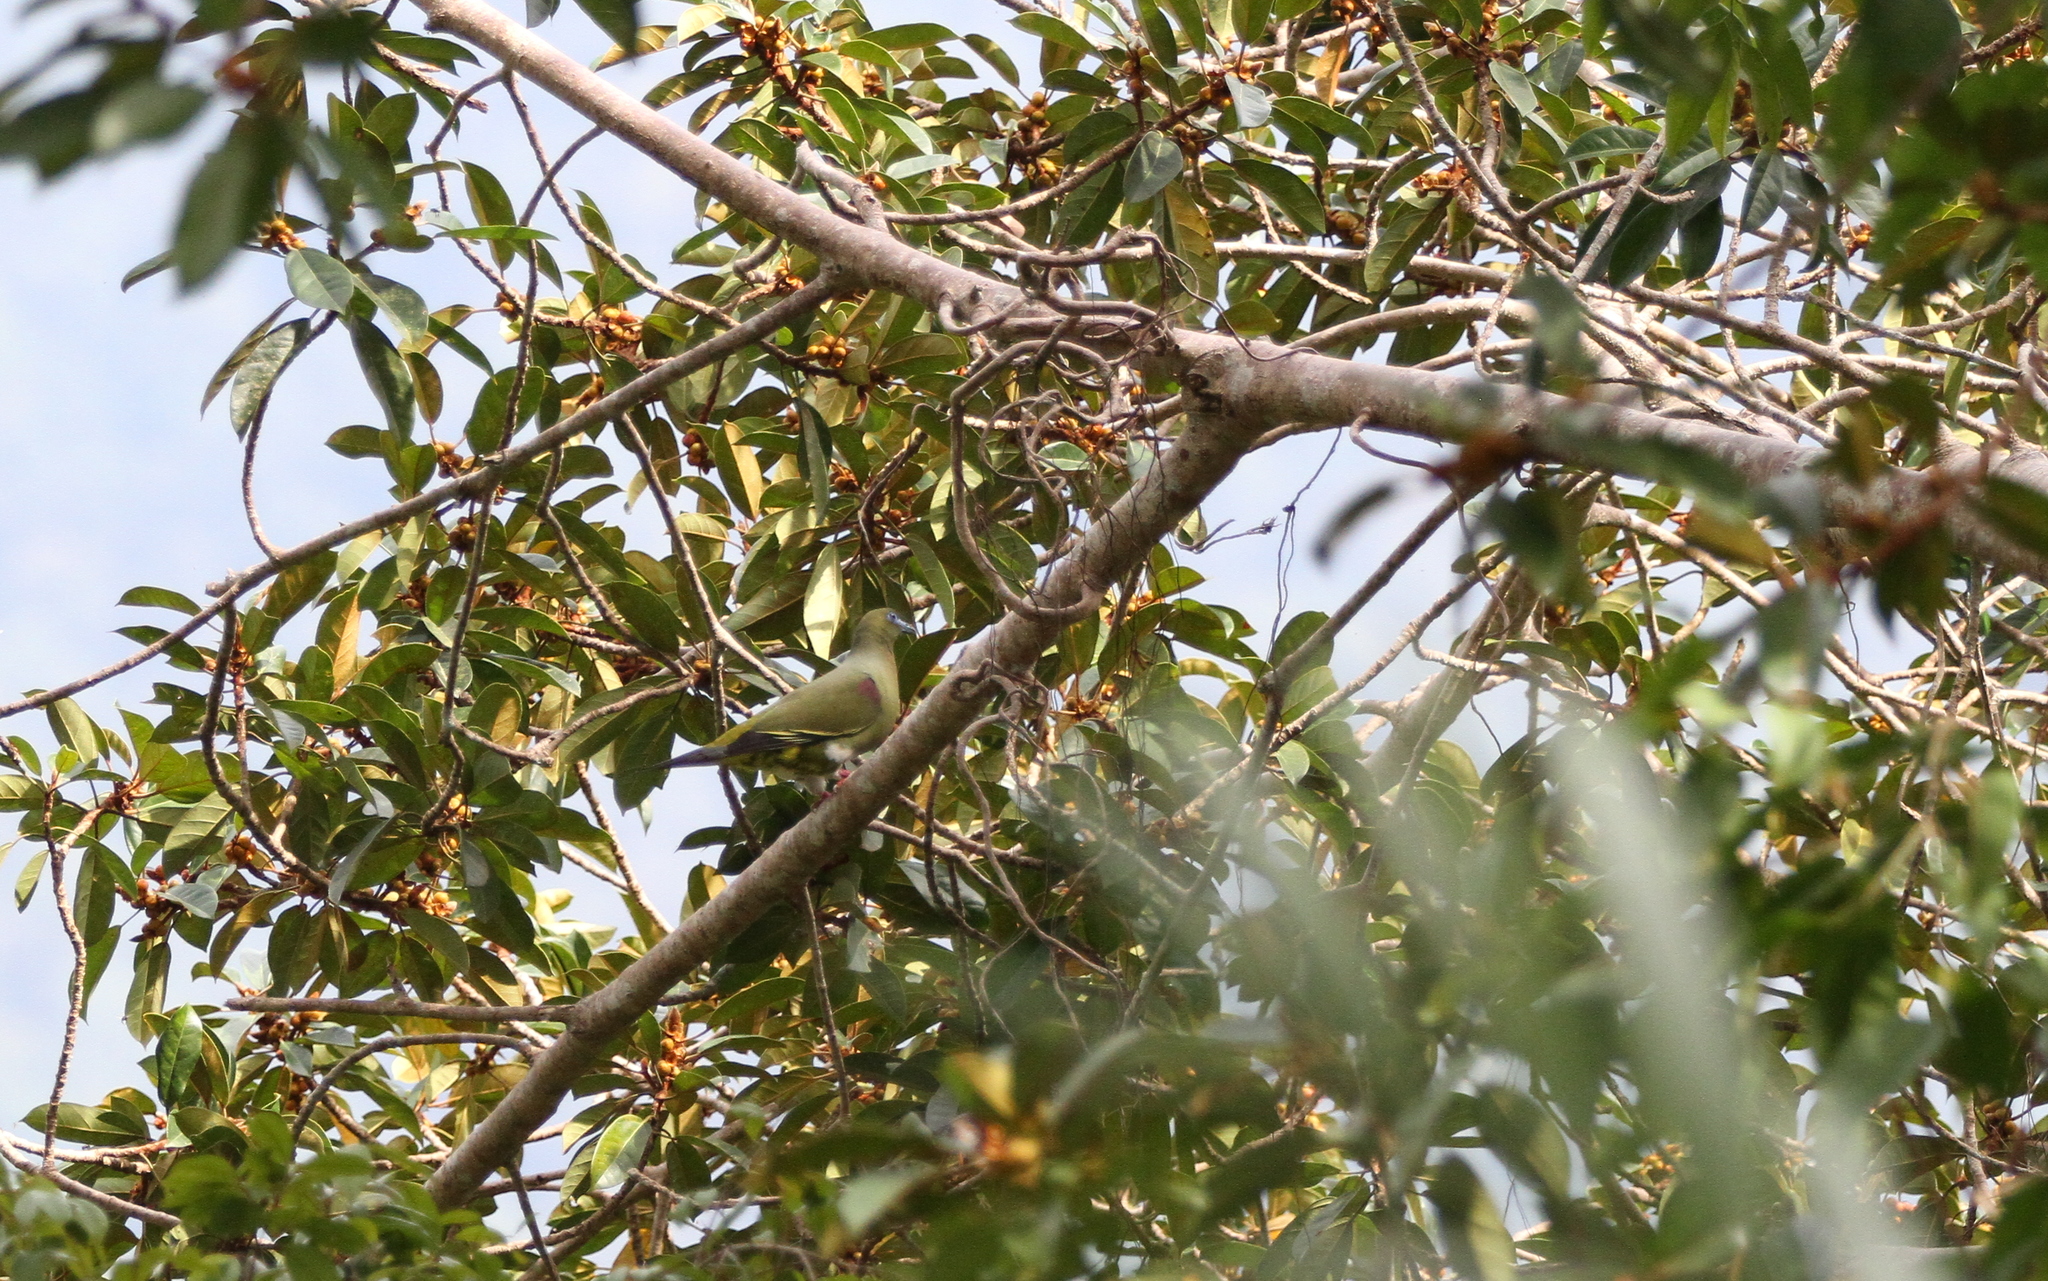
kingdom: Animalia
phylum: Chordata
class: Aves
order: Columbiformes
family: Columbidae
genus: Treron
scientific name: Treron seimundi
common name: Yellow-vented green pigeon
